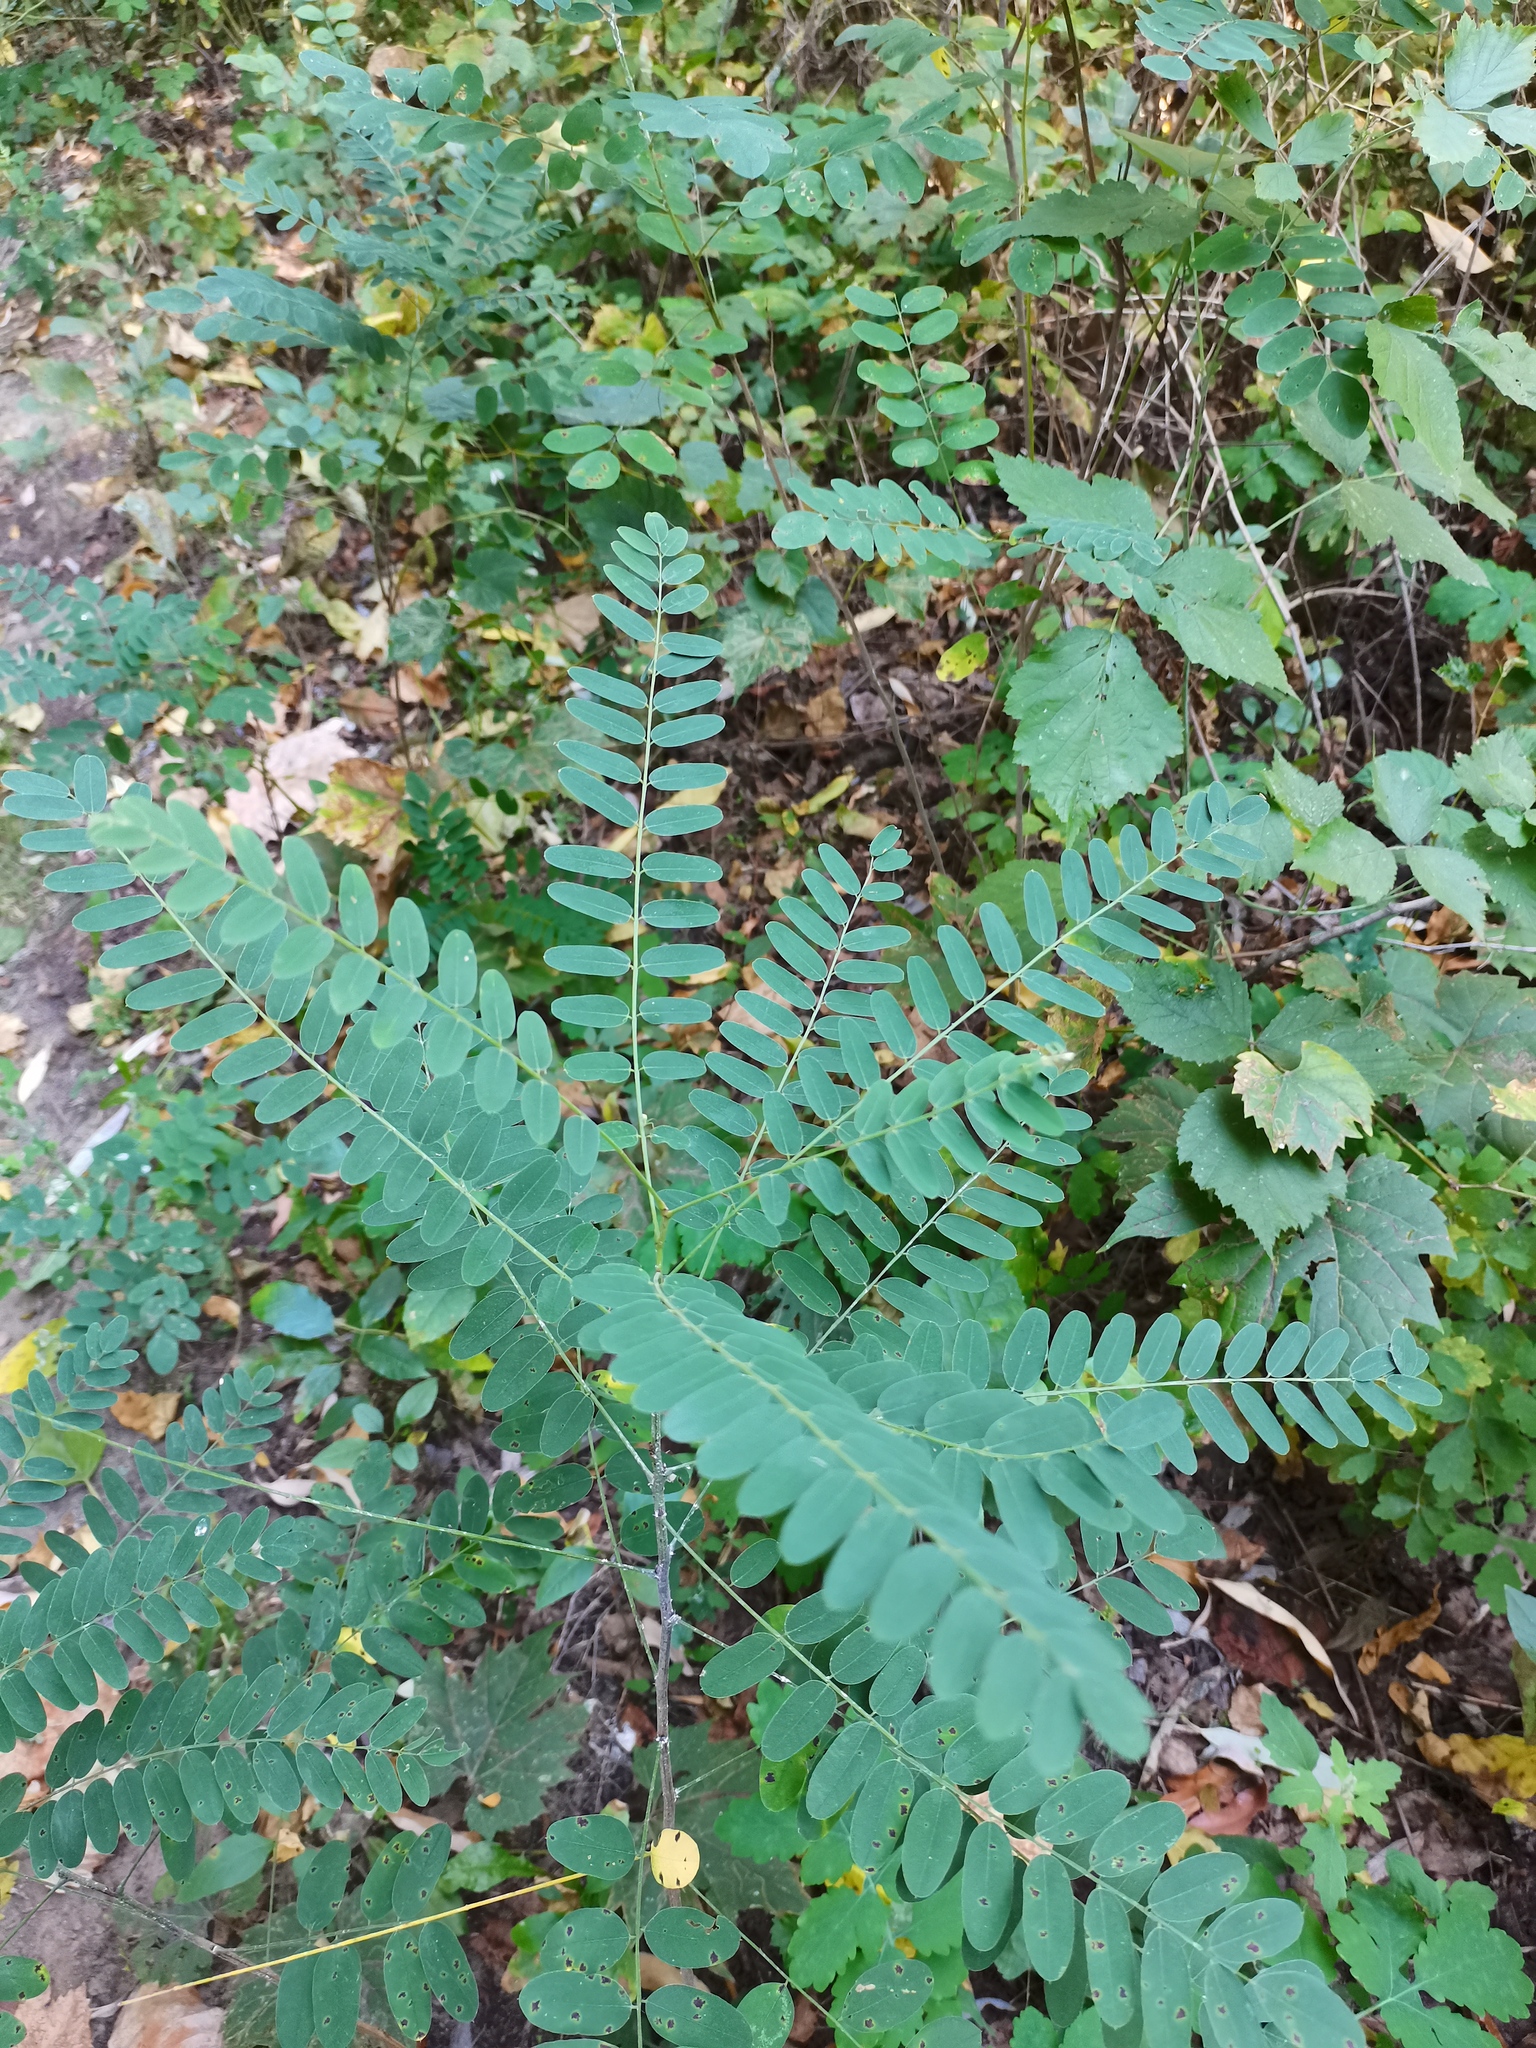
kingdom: Plantae
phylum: Tracheophyta
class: Magnoliopsida
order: Fabales
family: Fabaceae
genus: Amorpha
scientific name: Amorpha fruticosa
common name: False indigo
